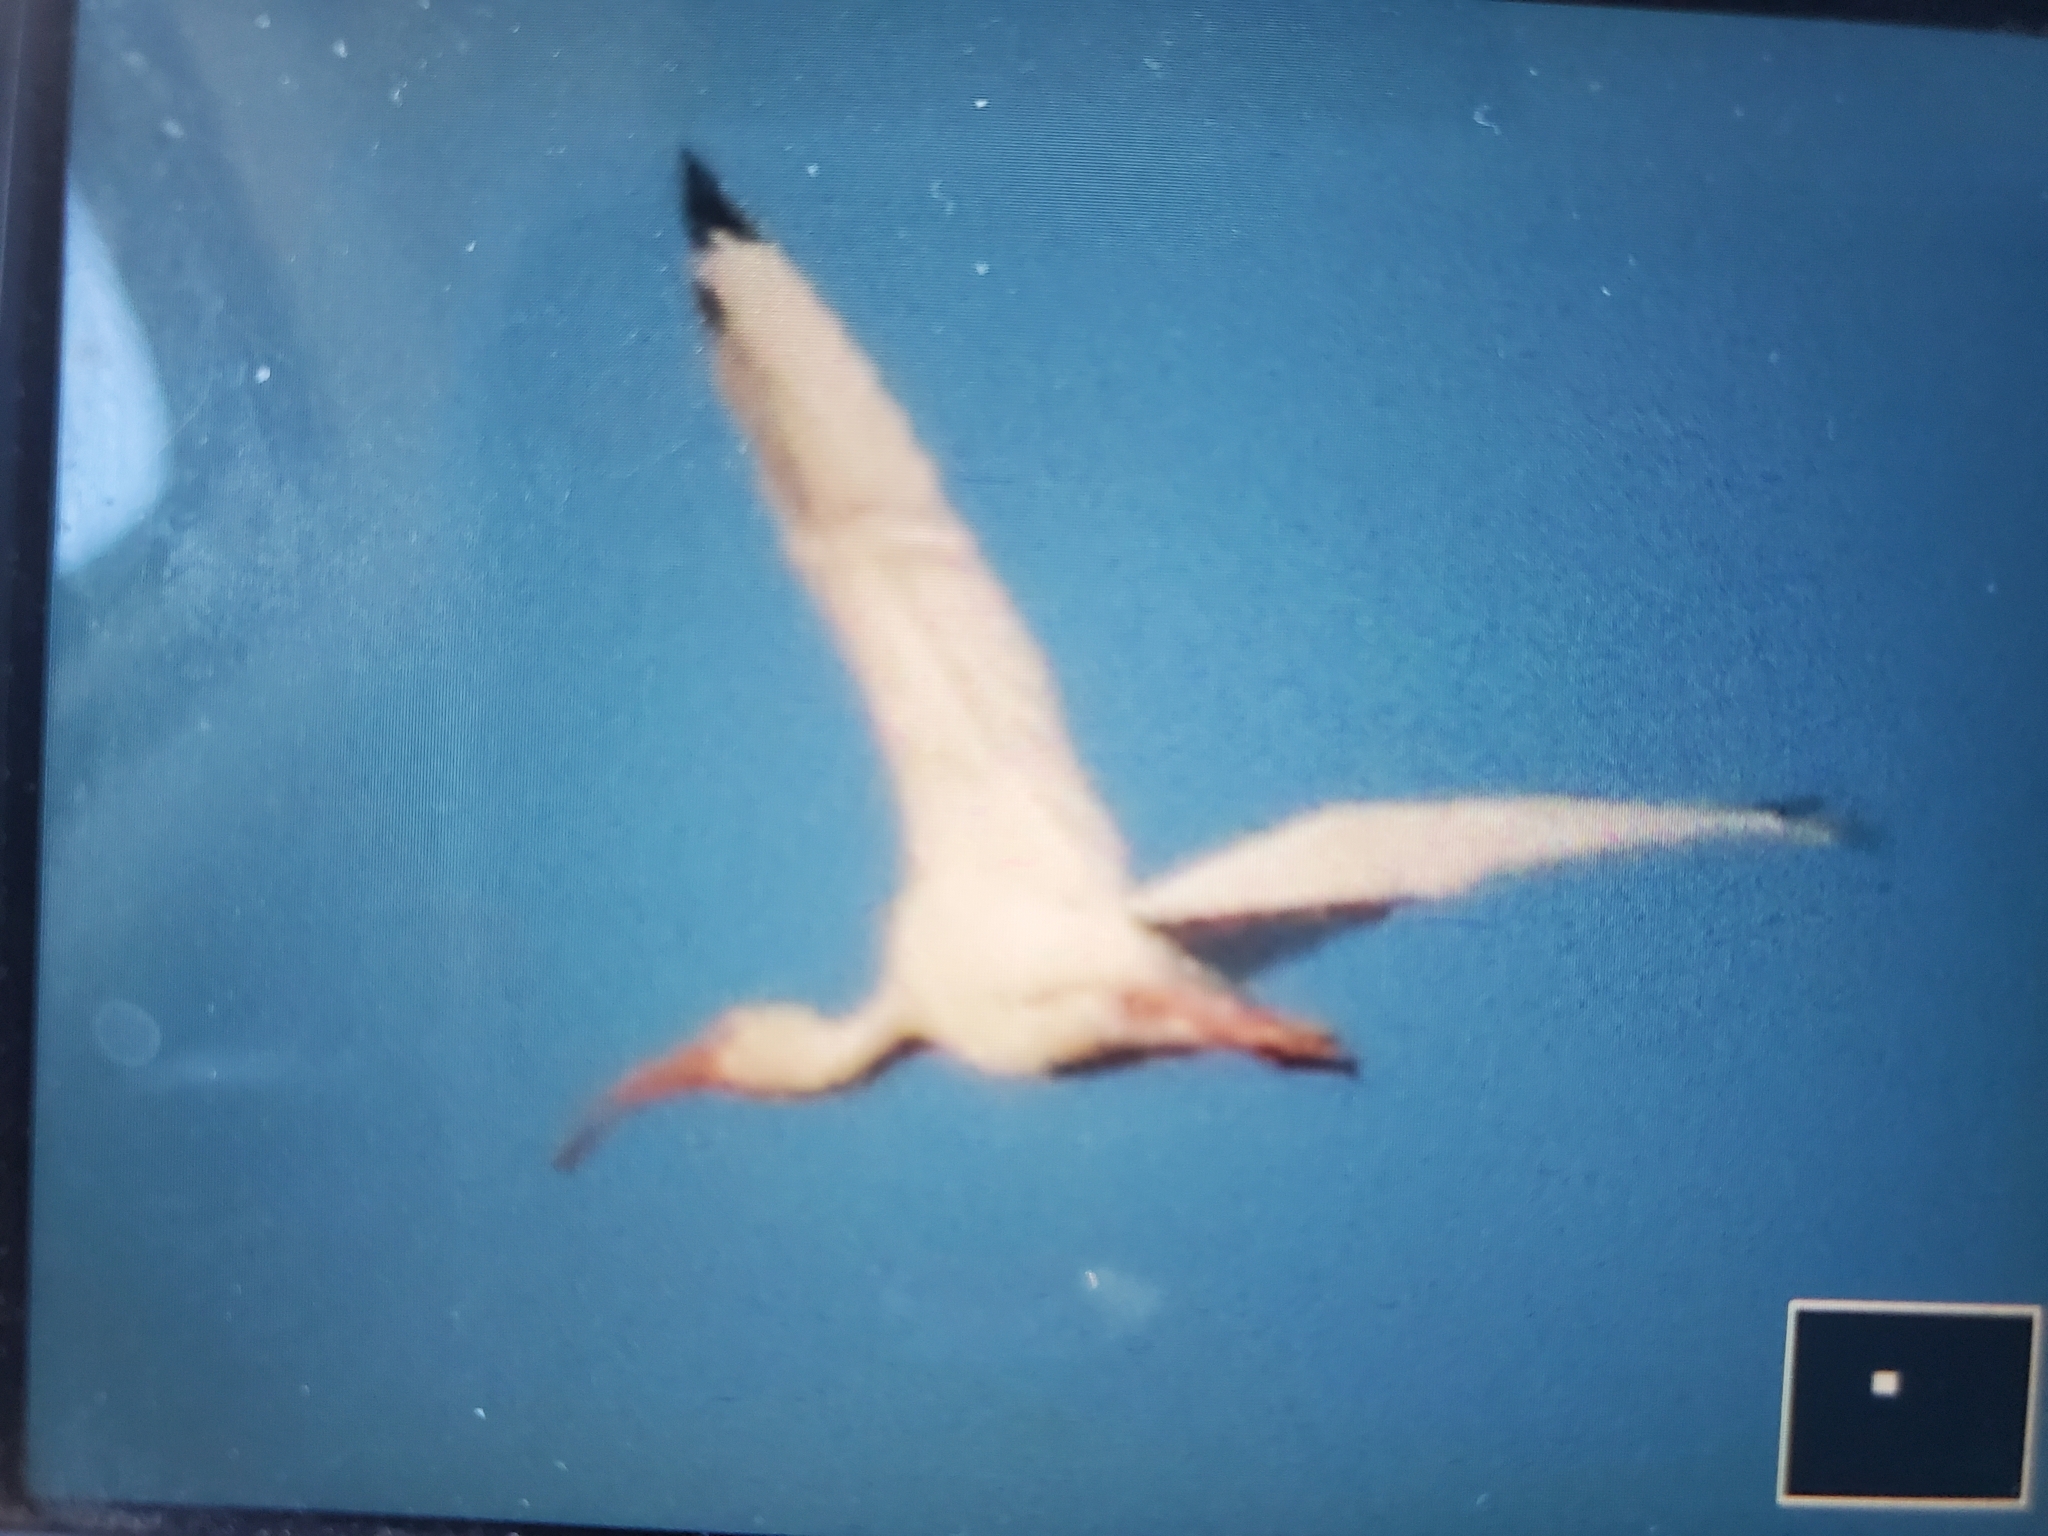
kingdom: Animalia
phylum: Chordata
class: Aves
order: Pelecaniformes
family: Threskiornithidae
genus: Eudocimus
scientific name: Eudocimus albus
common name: White ibis
